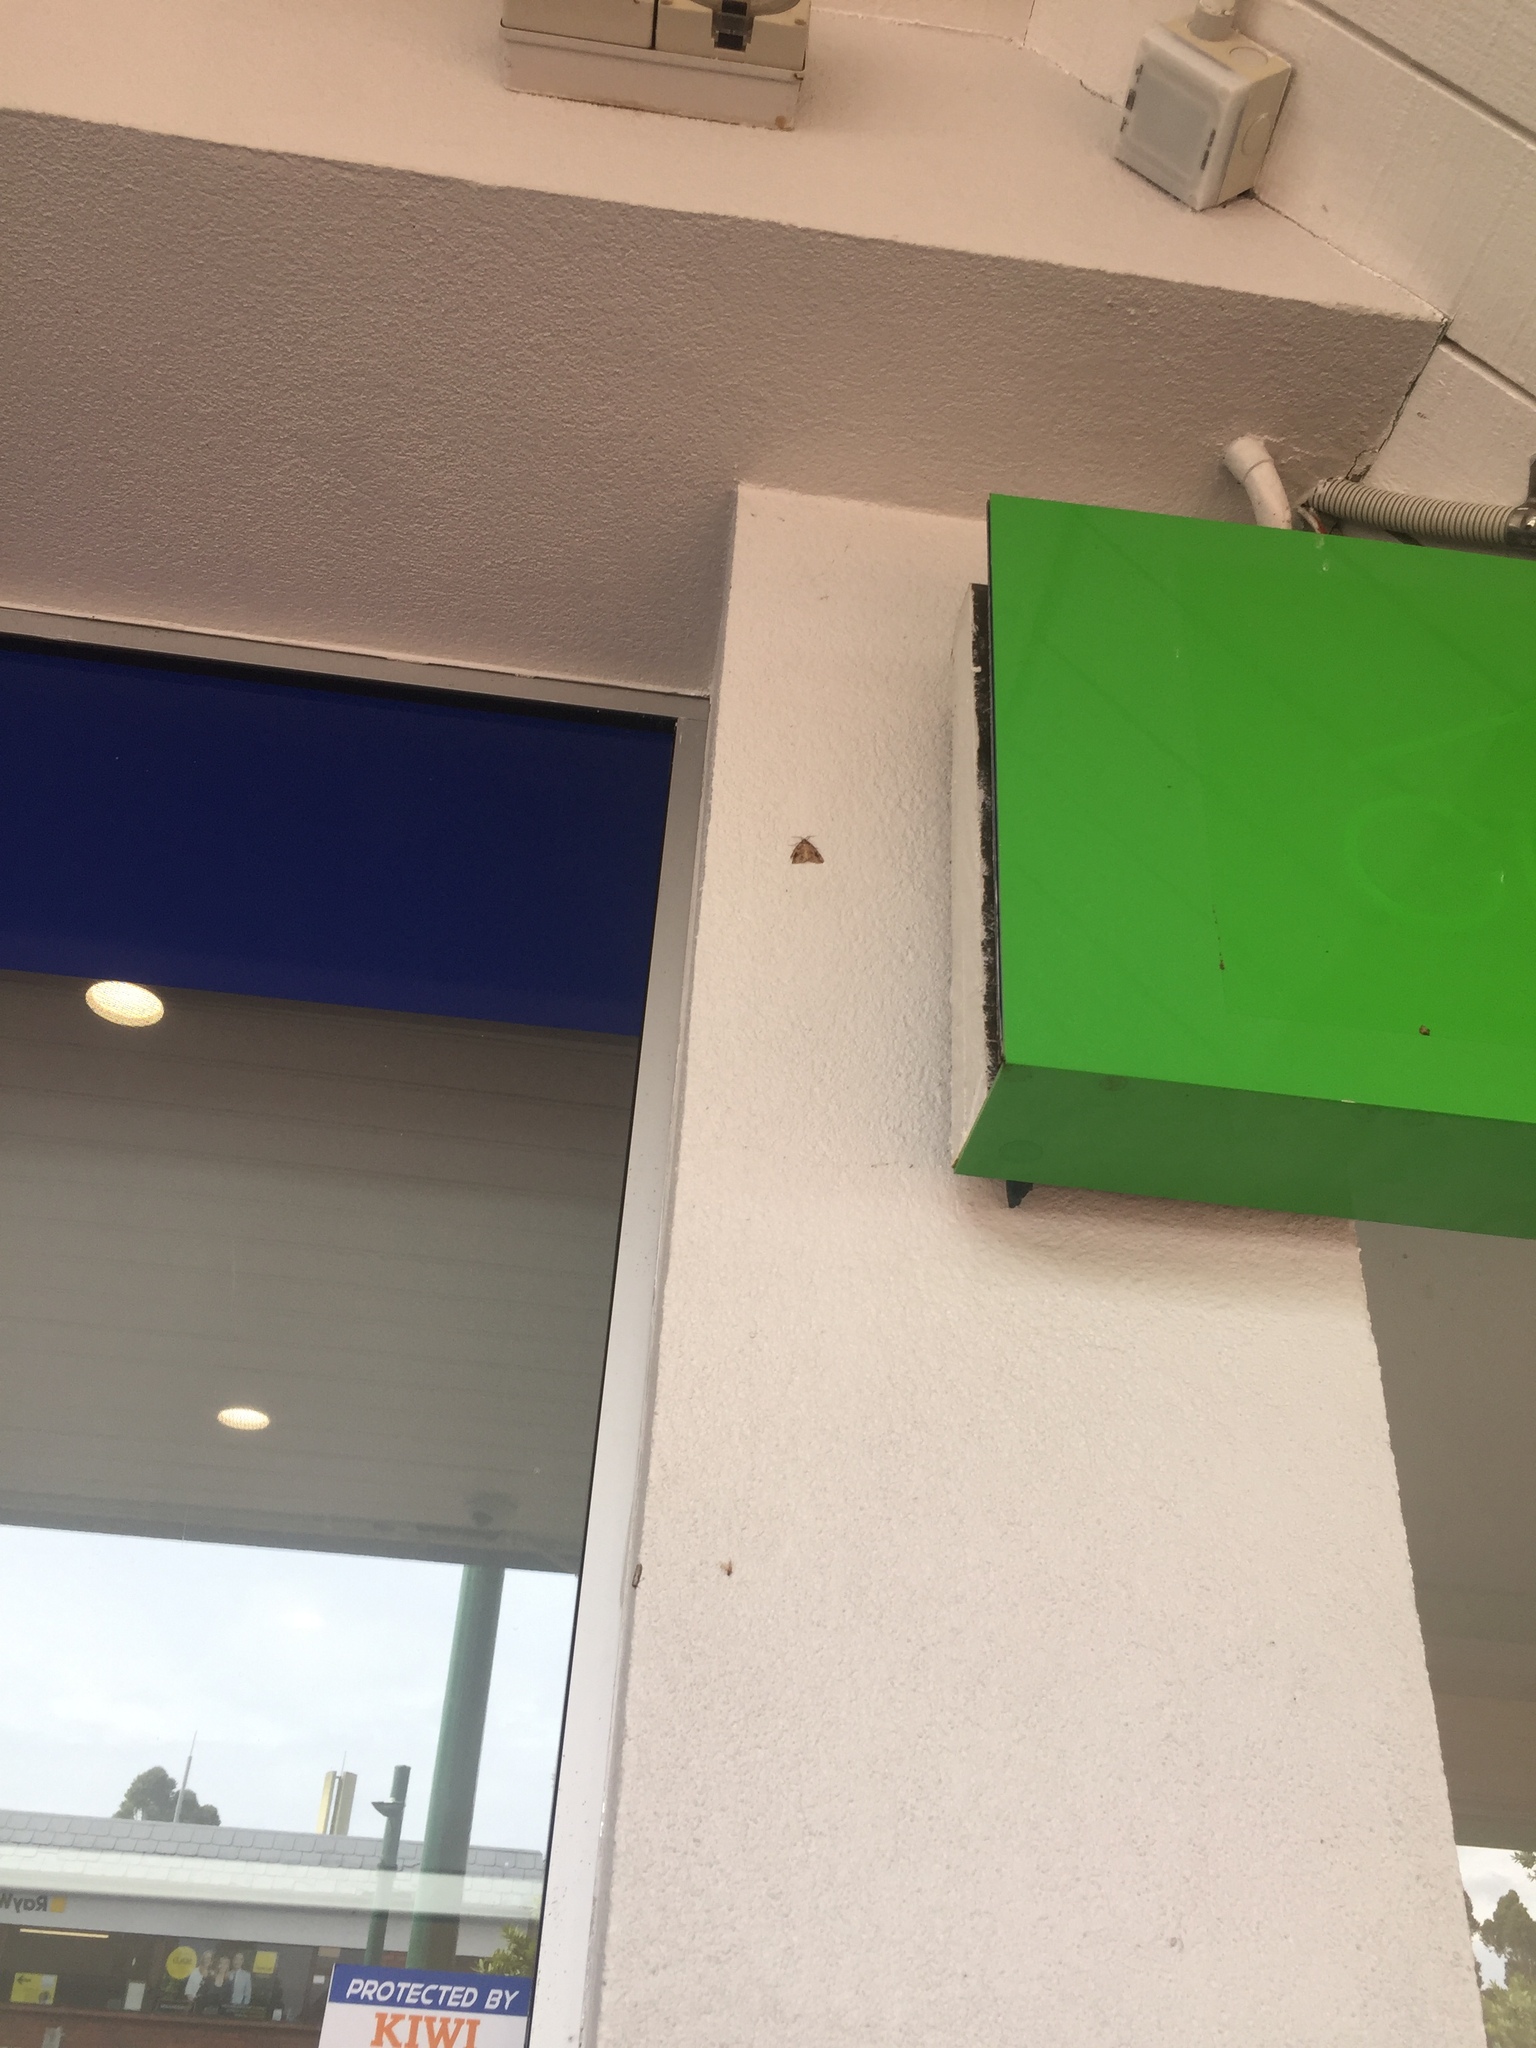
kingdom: Animalia
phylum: Arthropoda
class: Insecta
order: Lepidoptera
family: Geometridae
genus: Pseudocoremia
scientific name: Pseudocoremia rudisata
